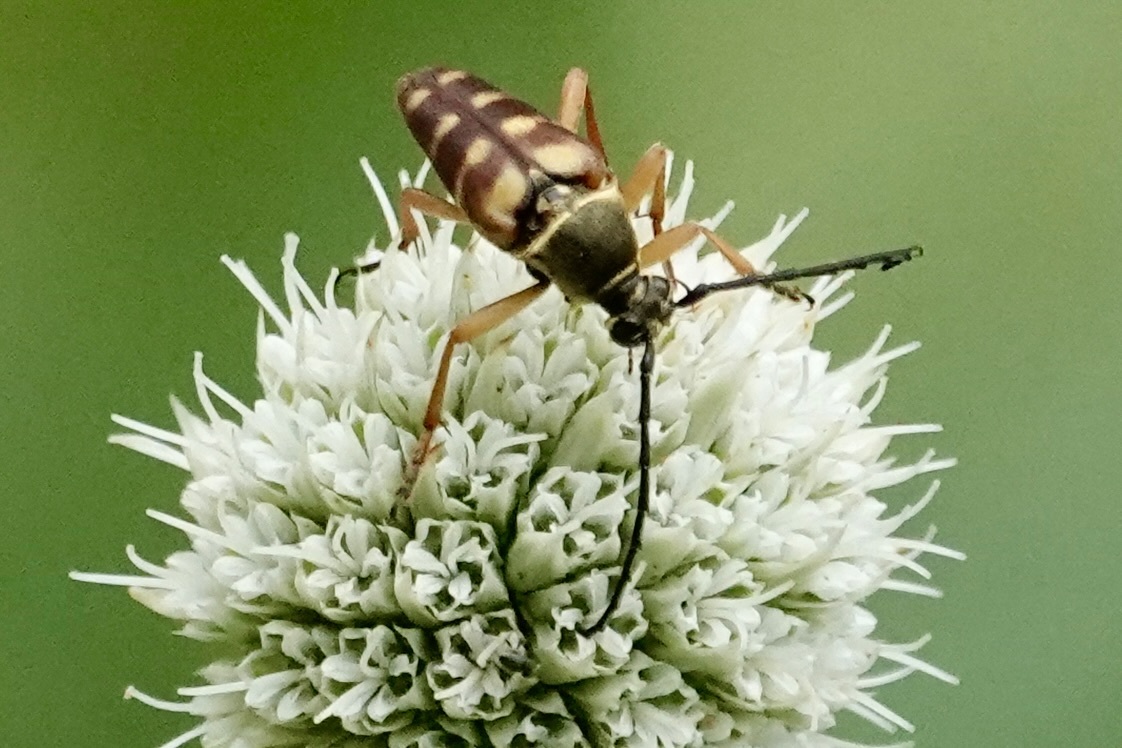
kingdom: Animalia
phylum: Arthropoda
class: Insecta
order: Coleoptera
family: Cerambycidae
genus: Typocerus
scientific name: Typocerus velutinus
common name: Banded longhorn beetle
